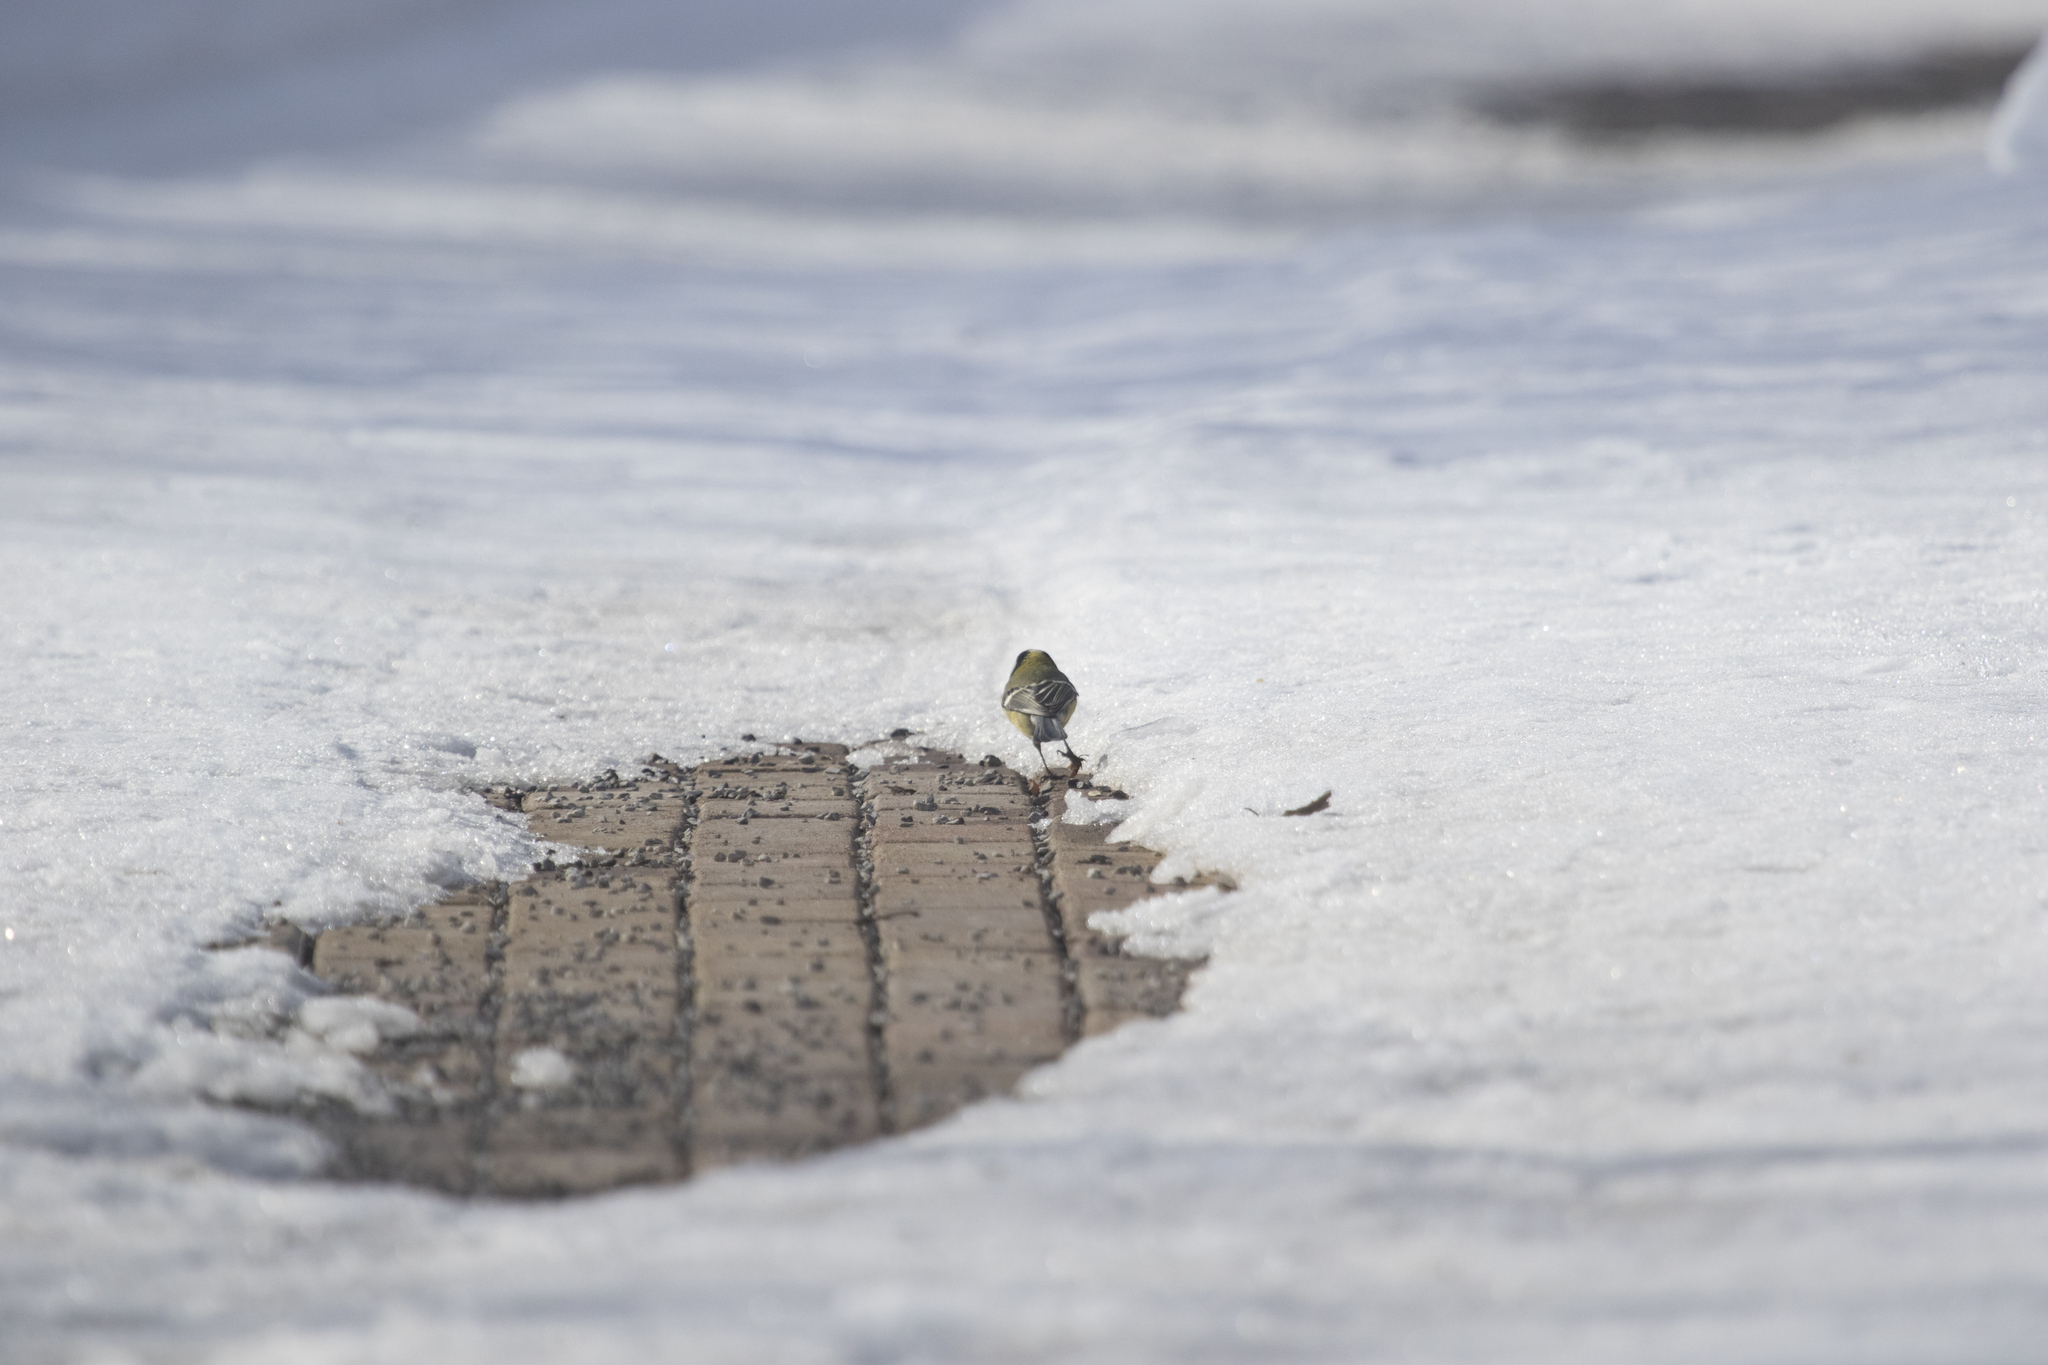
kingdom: Animalia
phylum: Chordata
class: Aves
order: Passeriformes
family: Paridae
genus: Parus
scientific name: Parus major
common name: Great tit
